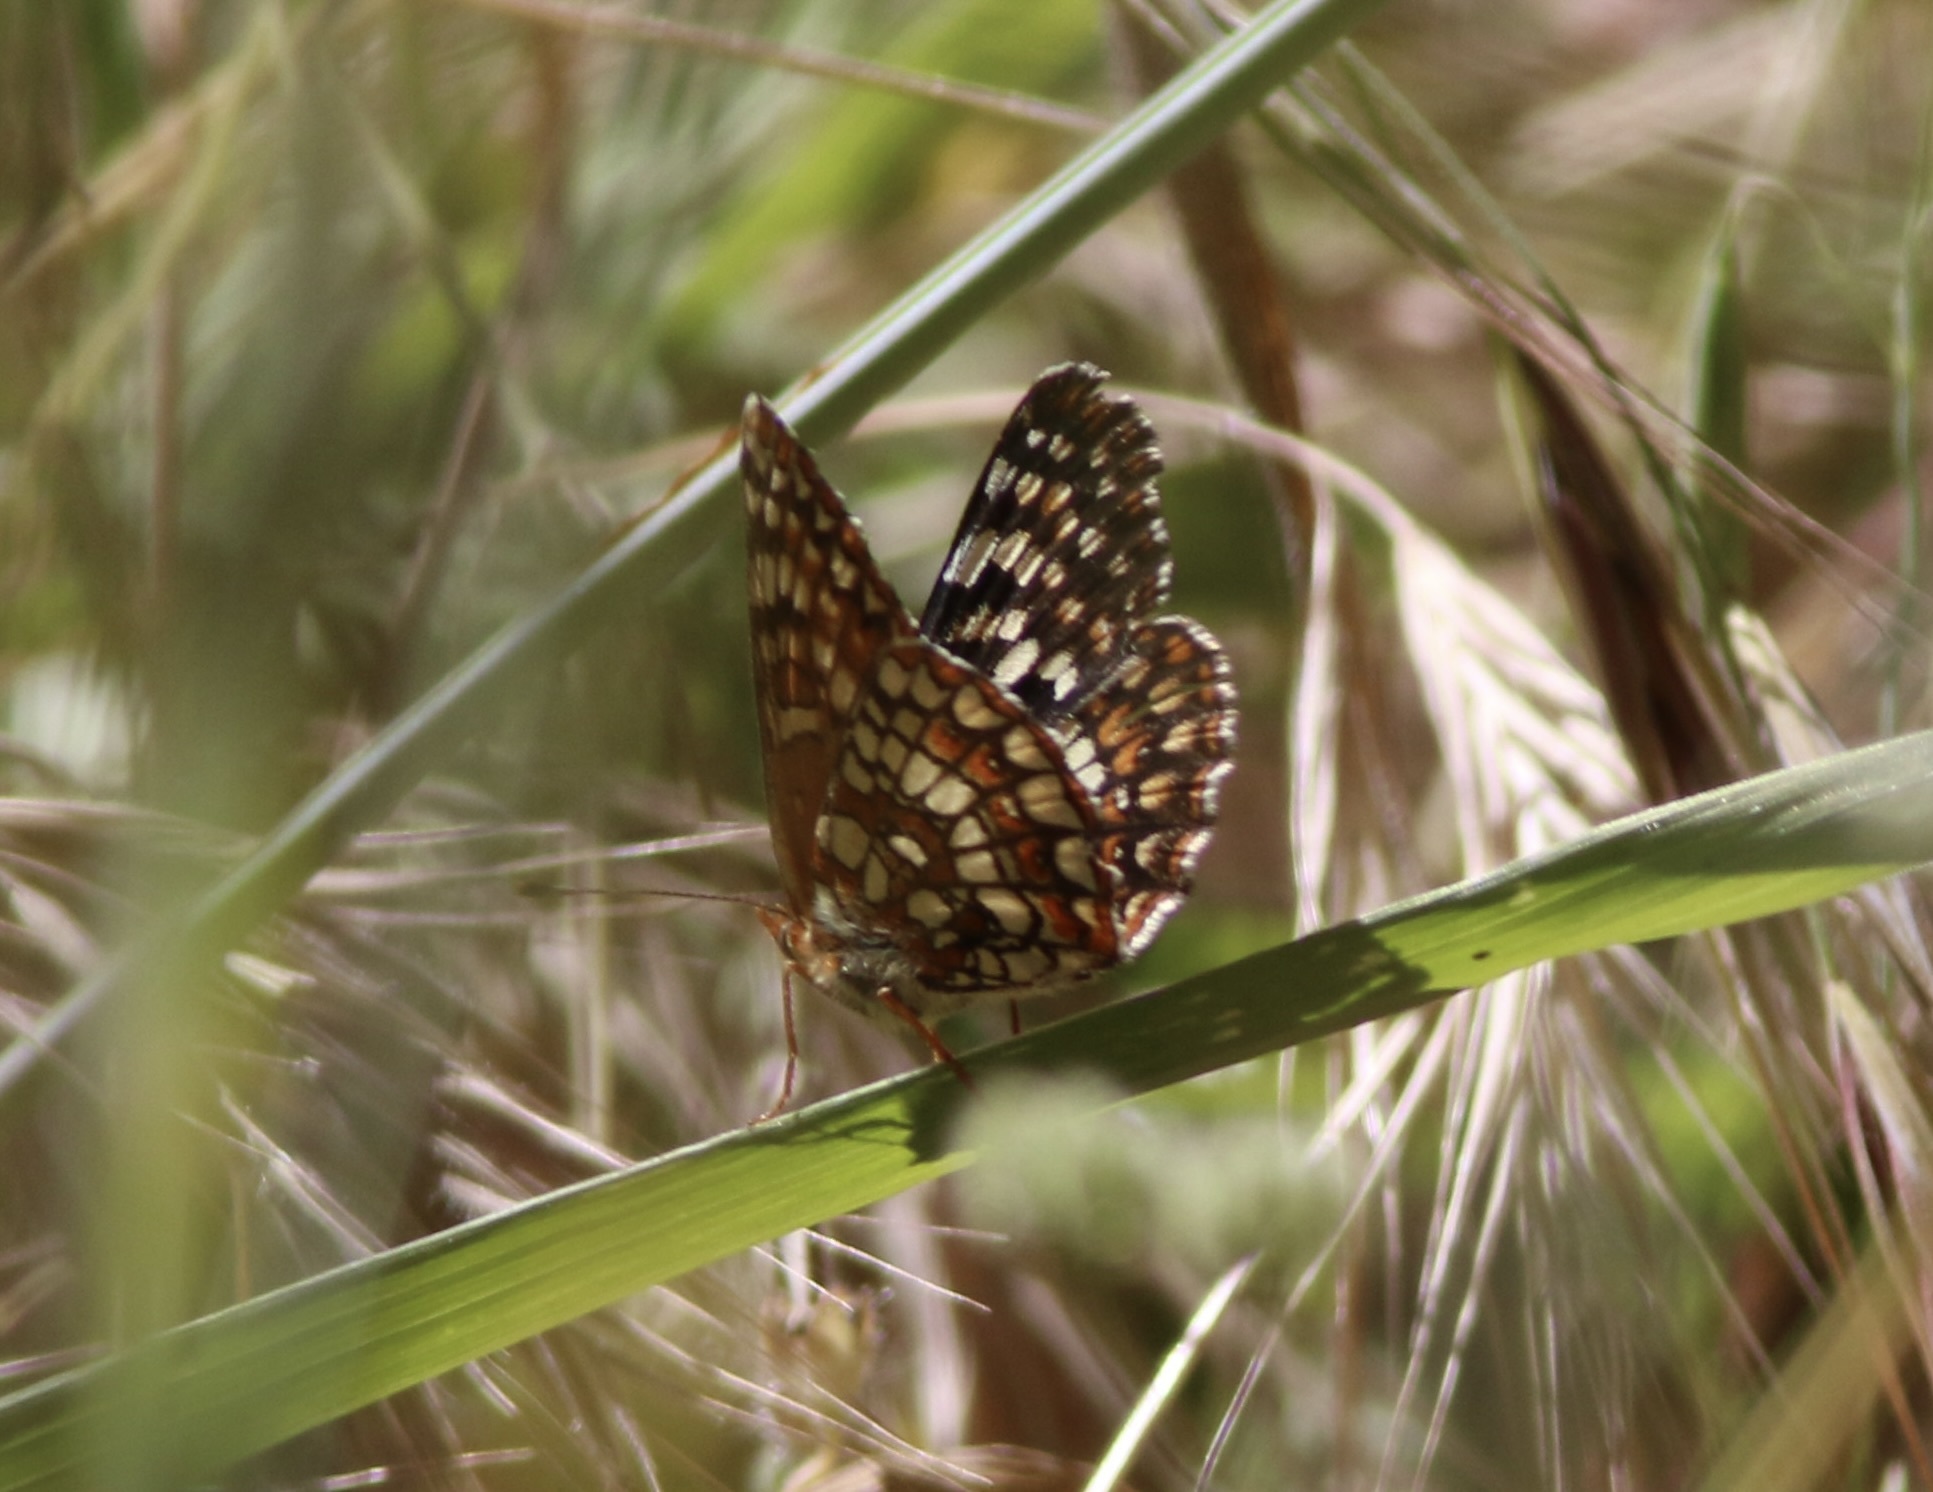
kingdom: Animalia
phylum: Arthropoda
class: Insecta
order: Lepidoptera
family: Nymphalidae
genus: Chlosyne
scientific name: Chlosyne palla
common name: Northern checkerspot
